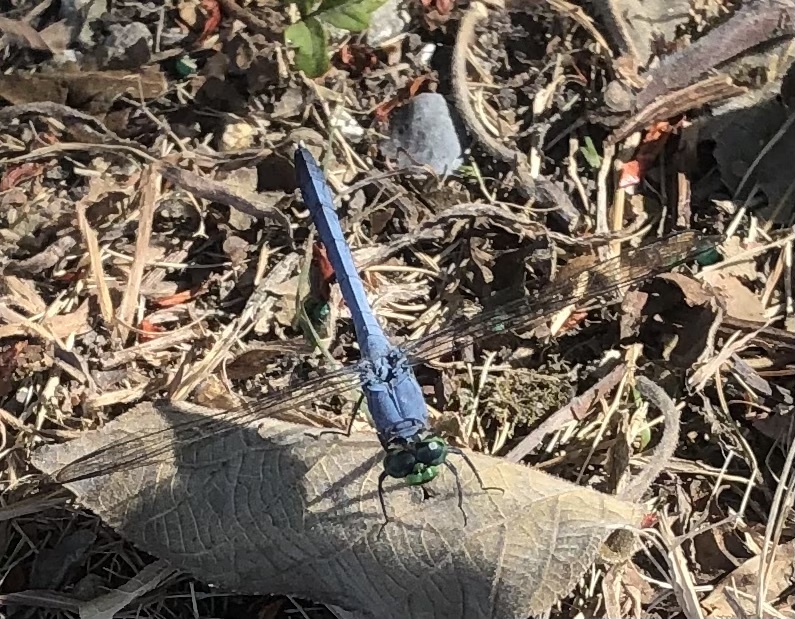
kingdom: Animalia
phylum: Arthropoda
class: Insecta
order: Odonata
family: Libellulidae
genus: Erythemis
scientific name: Erythemis simplicicollis
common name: Eastern pondhawk
